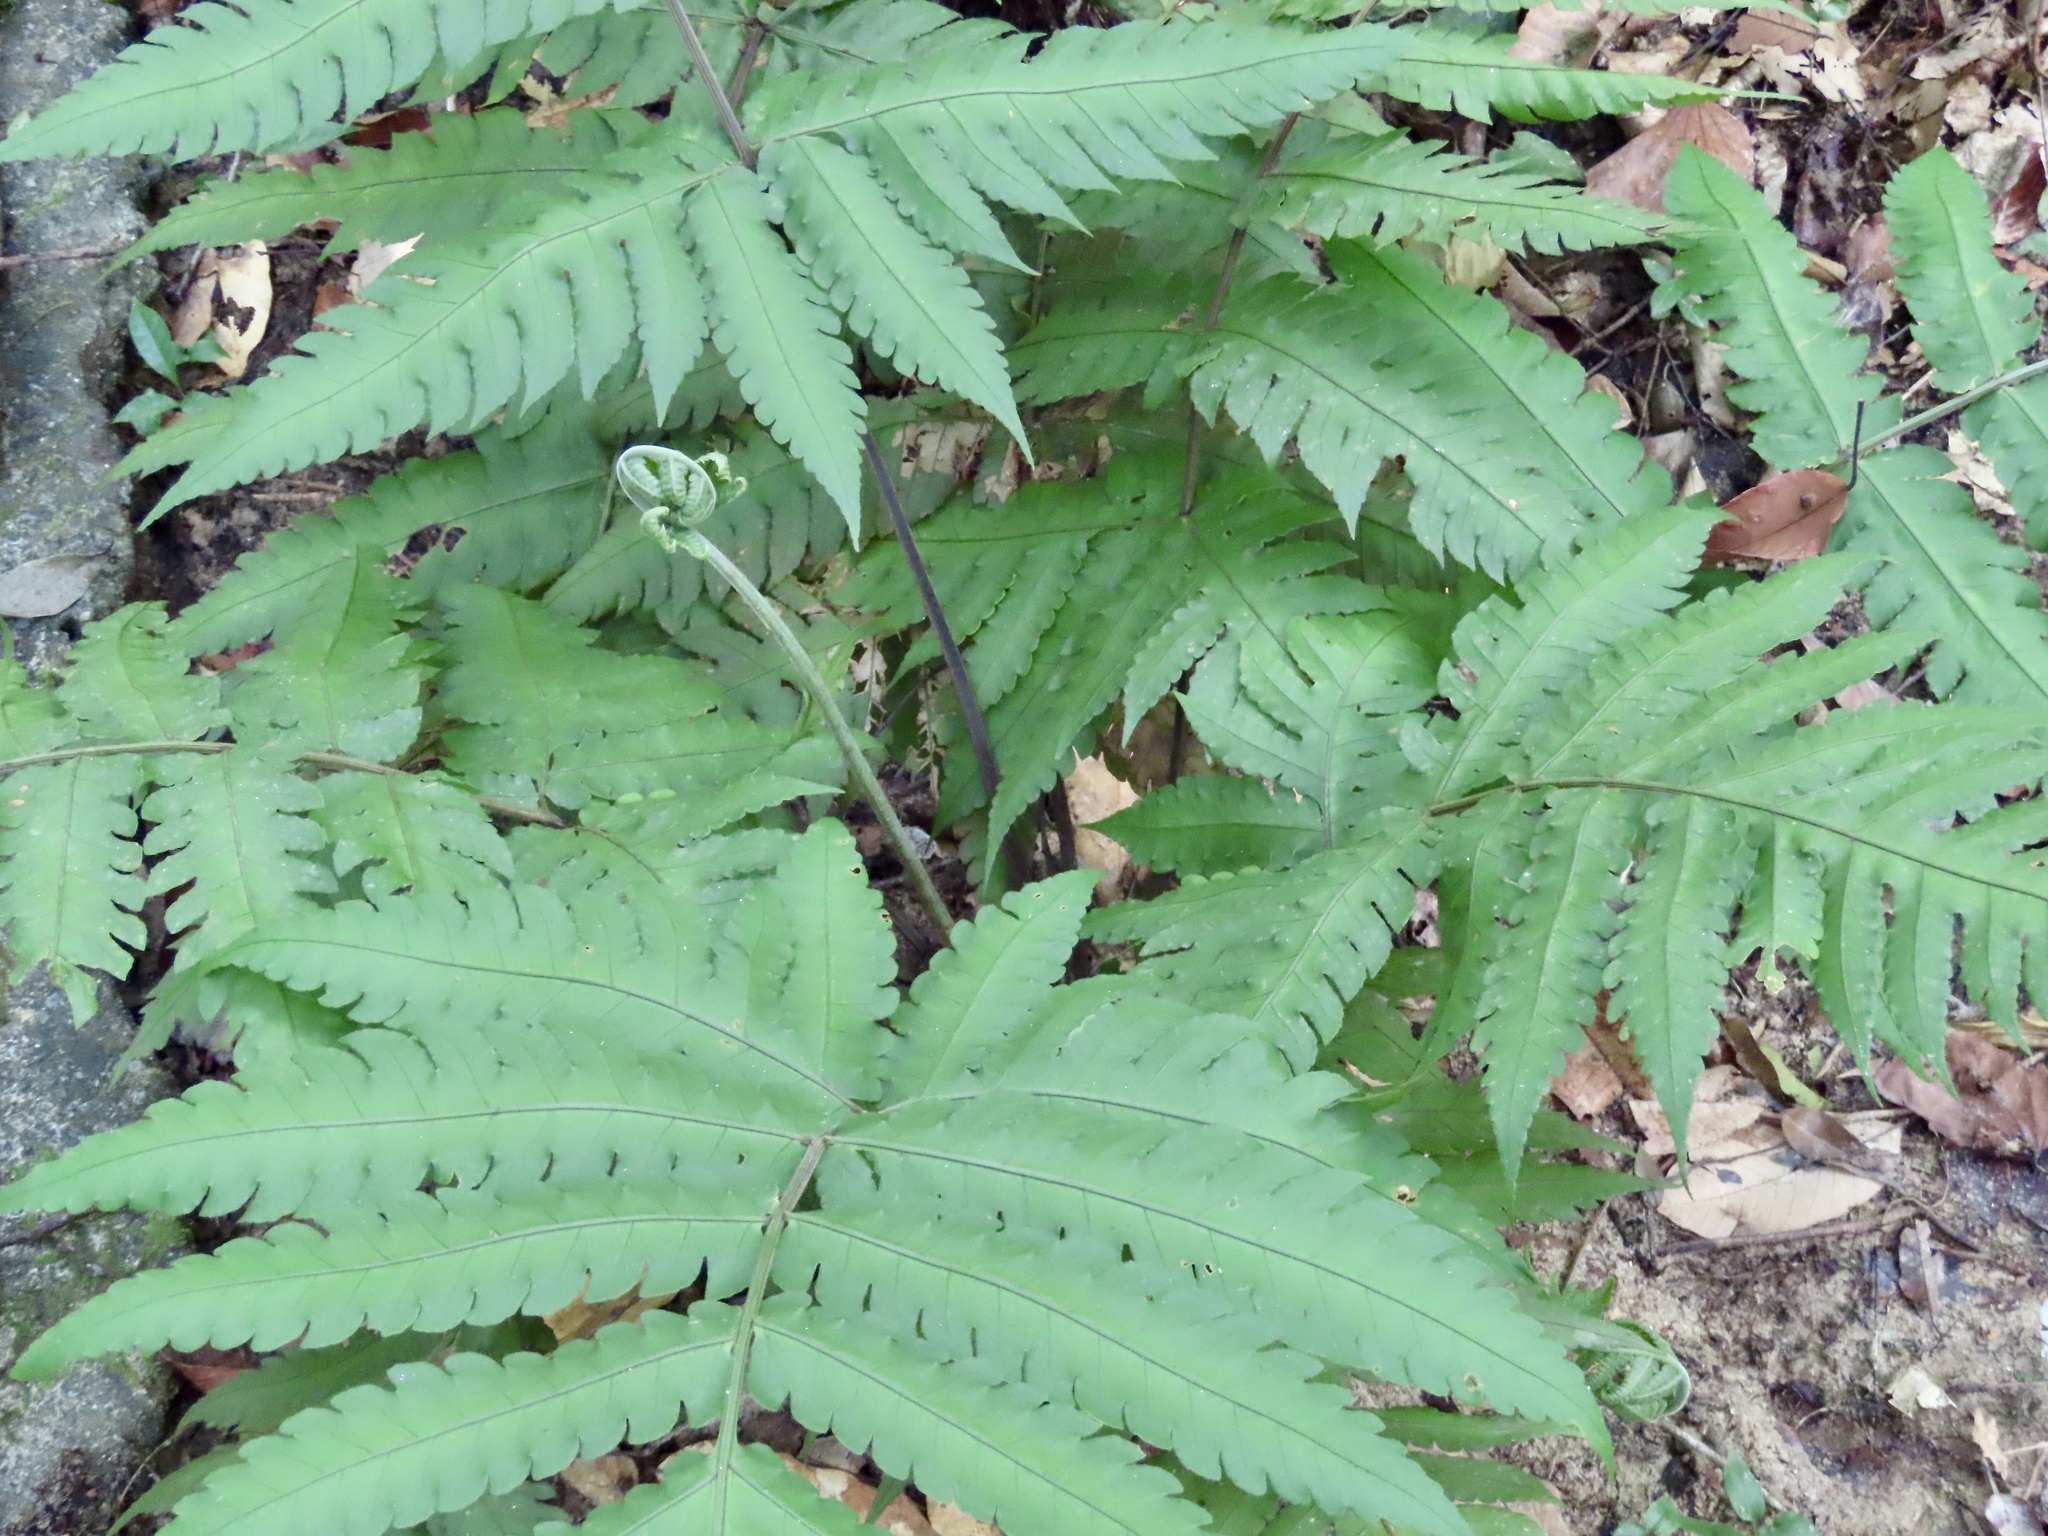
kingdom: Plantae
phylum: Tracheophyta
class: Polypodiopsida
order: Polypodiales
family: Dryopteridaceae
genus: Pleocnemia
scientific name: Pleocnemia irregularis
